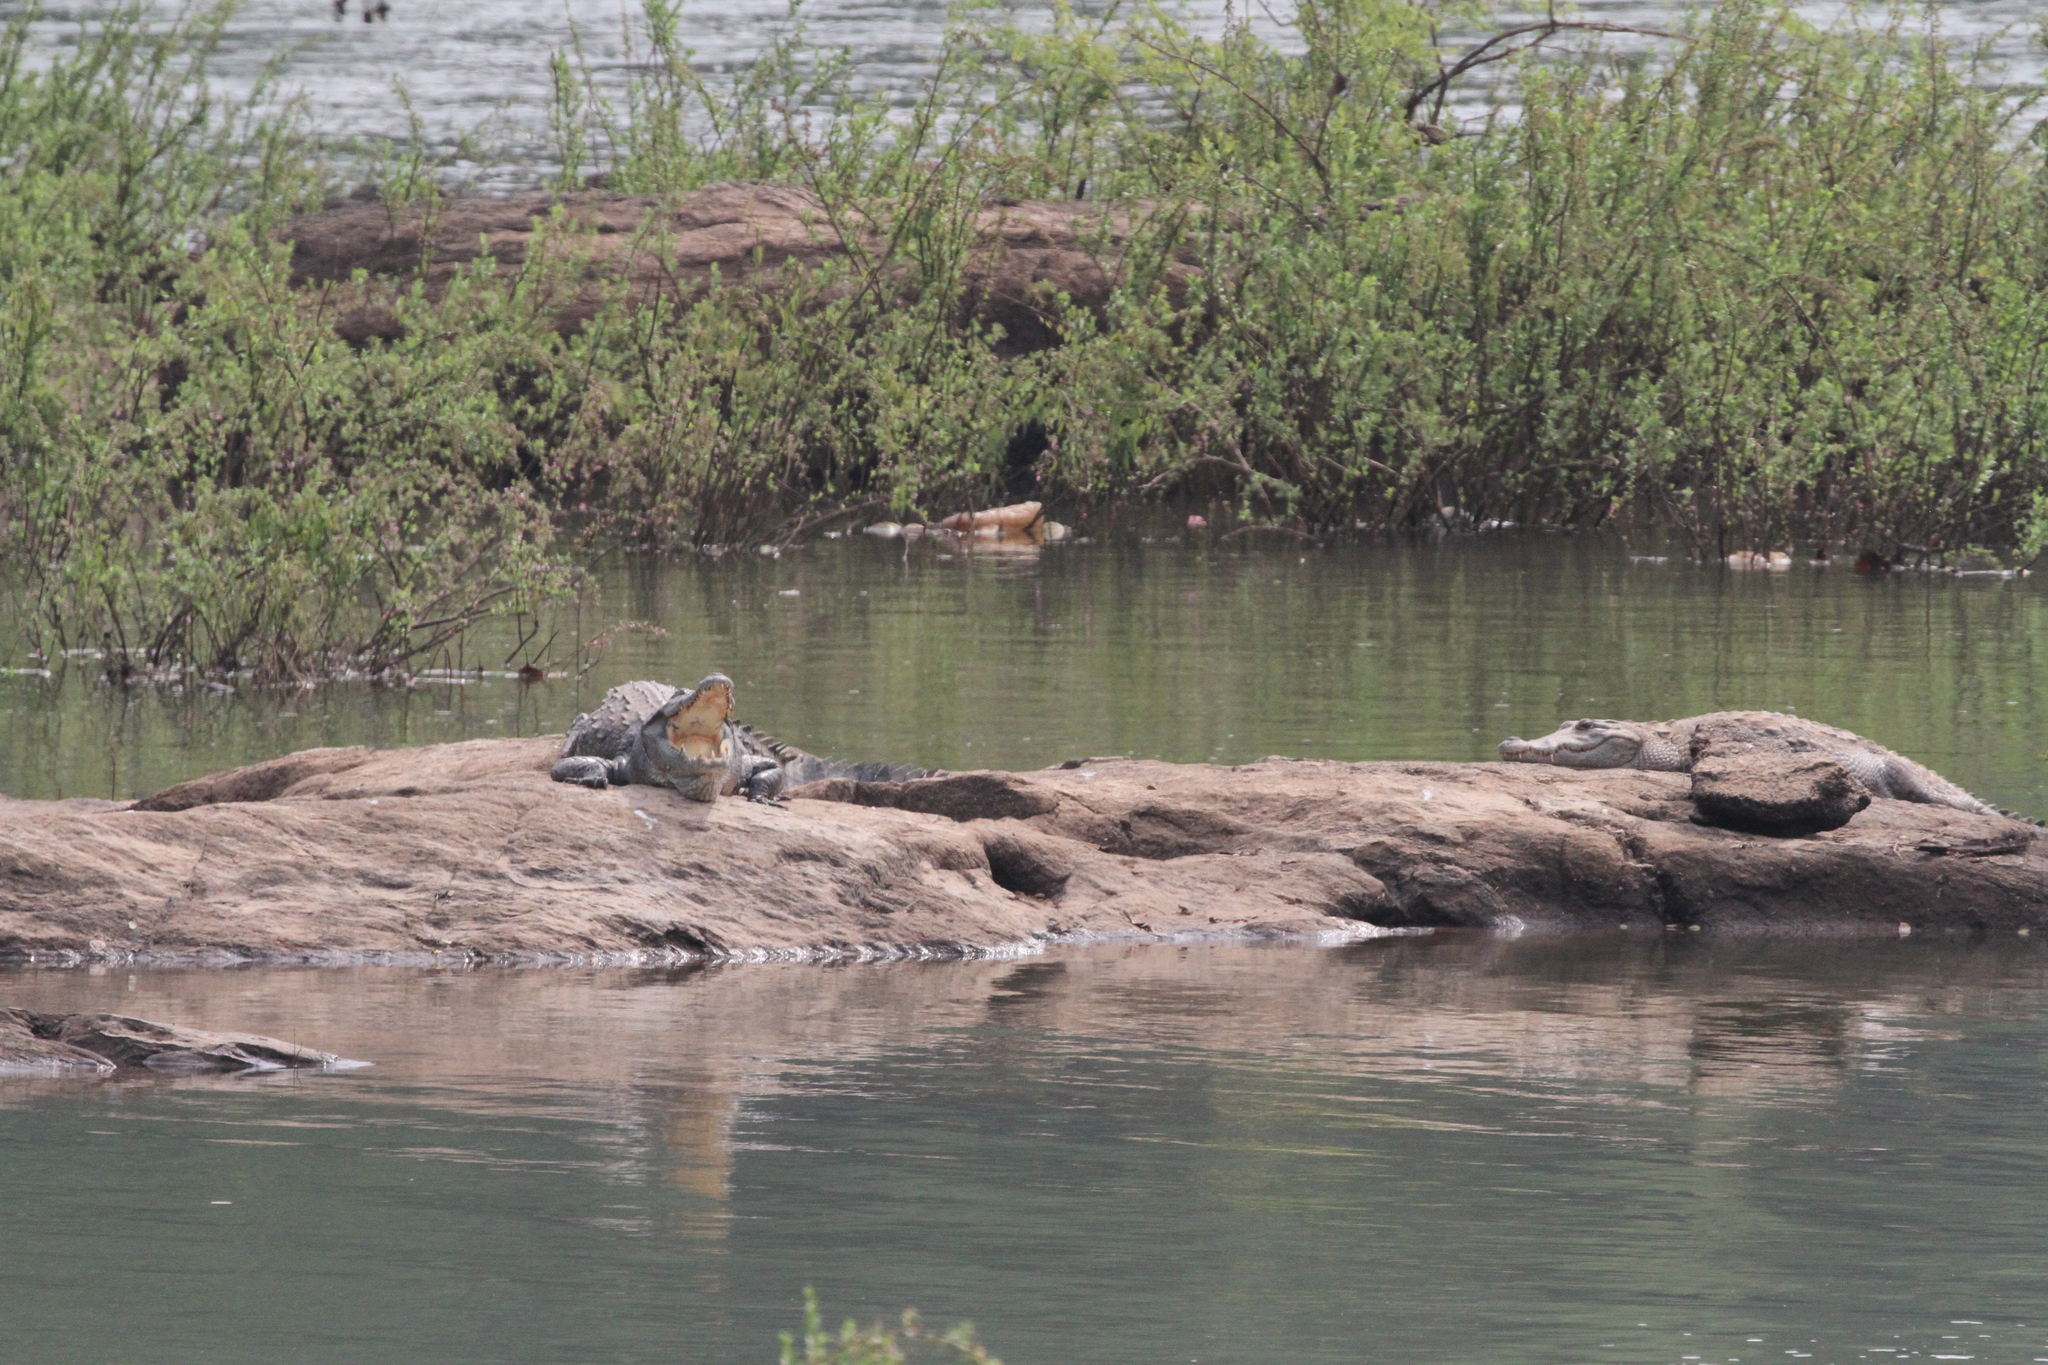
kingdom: Animalia
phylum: Chordata
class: Crocodylia
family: Crocodylidae
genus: Crocodylus
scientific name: Crocodylus suchus
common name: West african crocodile
